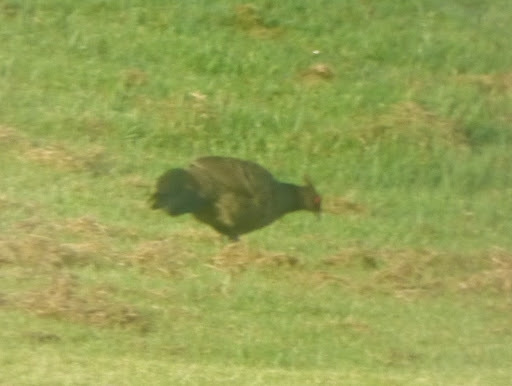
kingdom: Animalia
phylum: Chordata
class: Aves
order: Galliformes
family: Phasianidae
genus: Lophura
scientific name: Lophura leucomelanos
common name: Kalij pheasant
